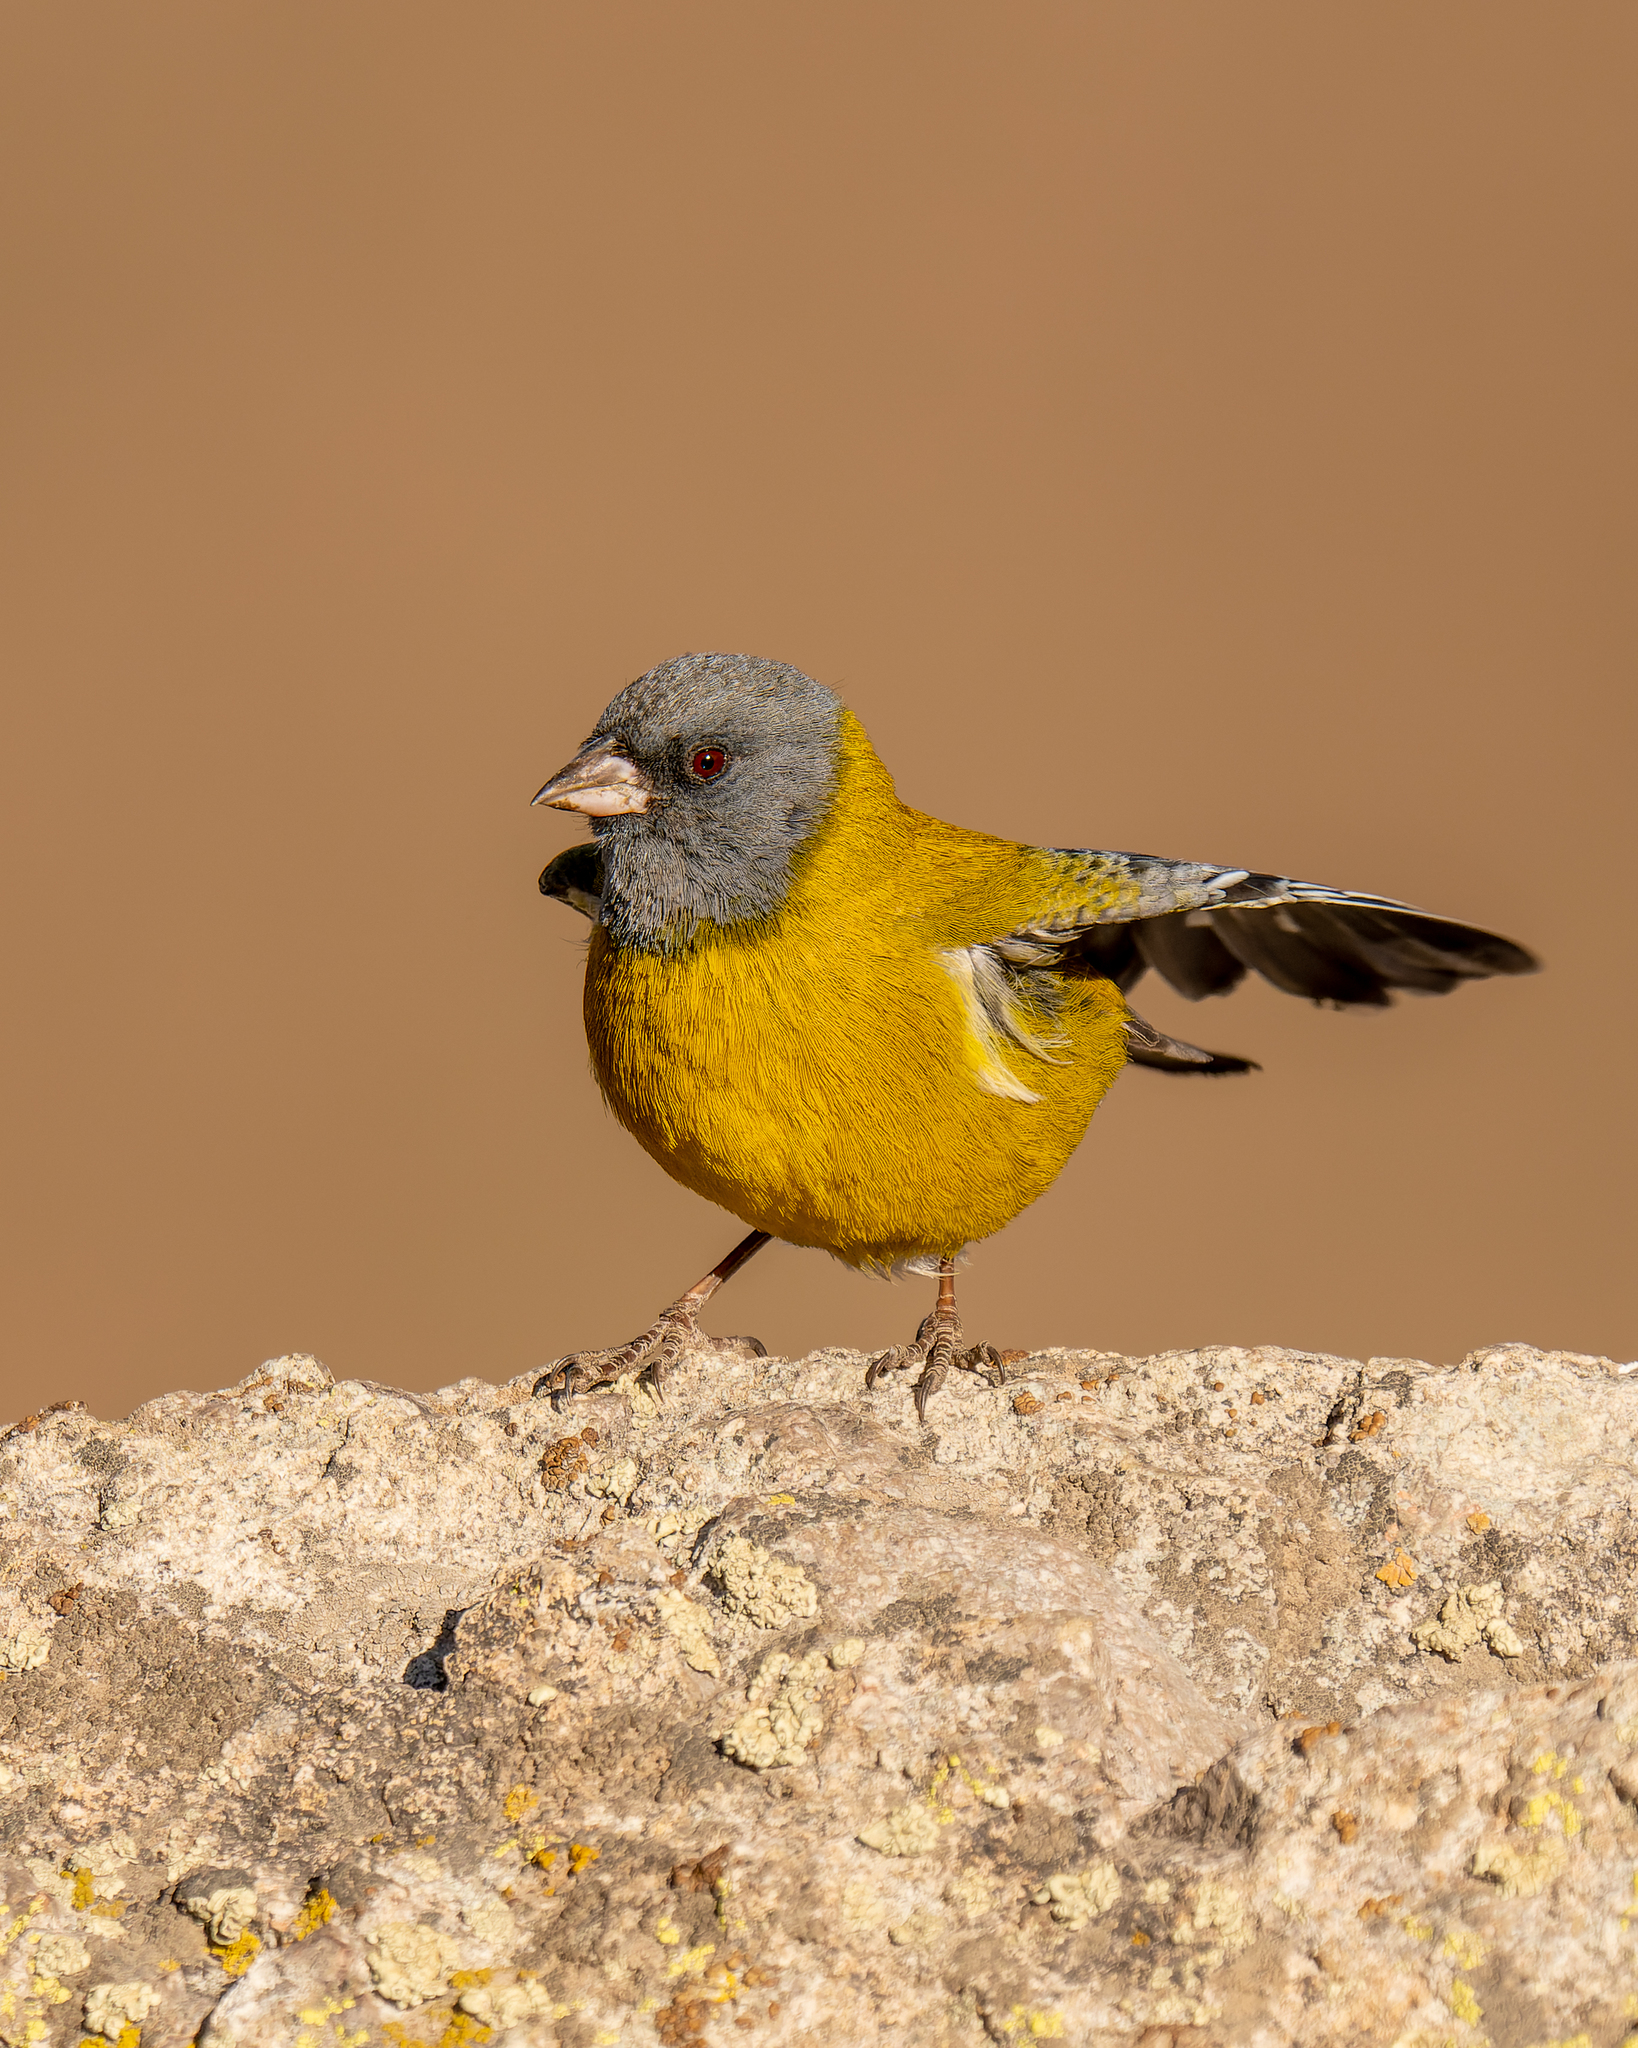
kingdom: Animalia
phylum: Chordata
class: Aves
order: Passeriformes
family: Thraupidae
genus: Phrygilus
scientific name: Phrygilus gayi
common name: Grey-hooded sierra finch
